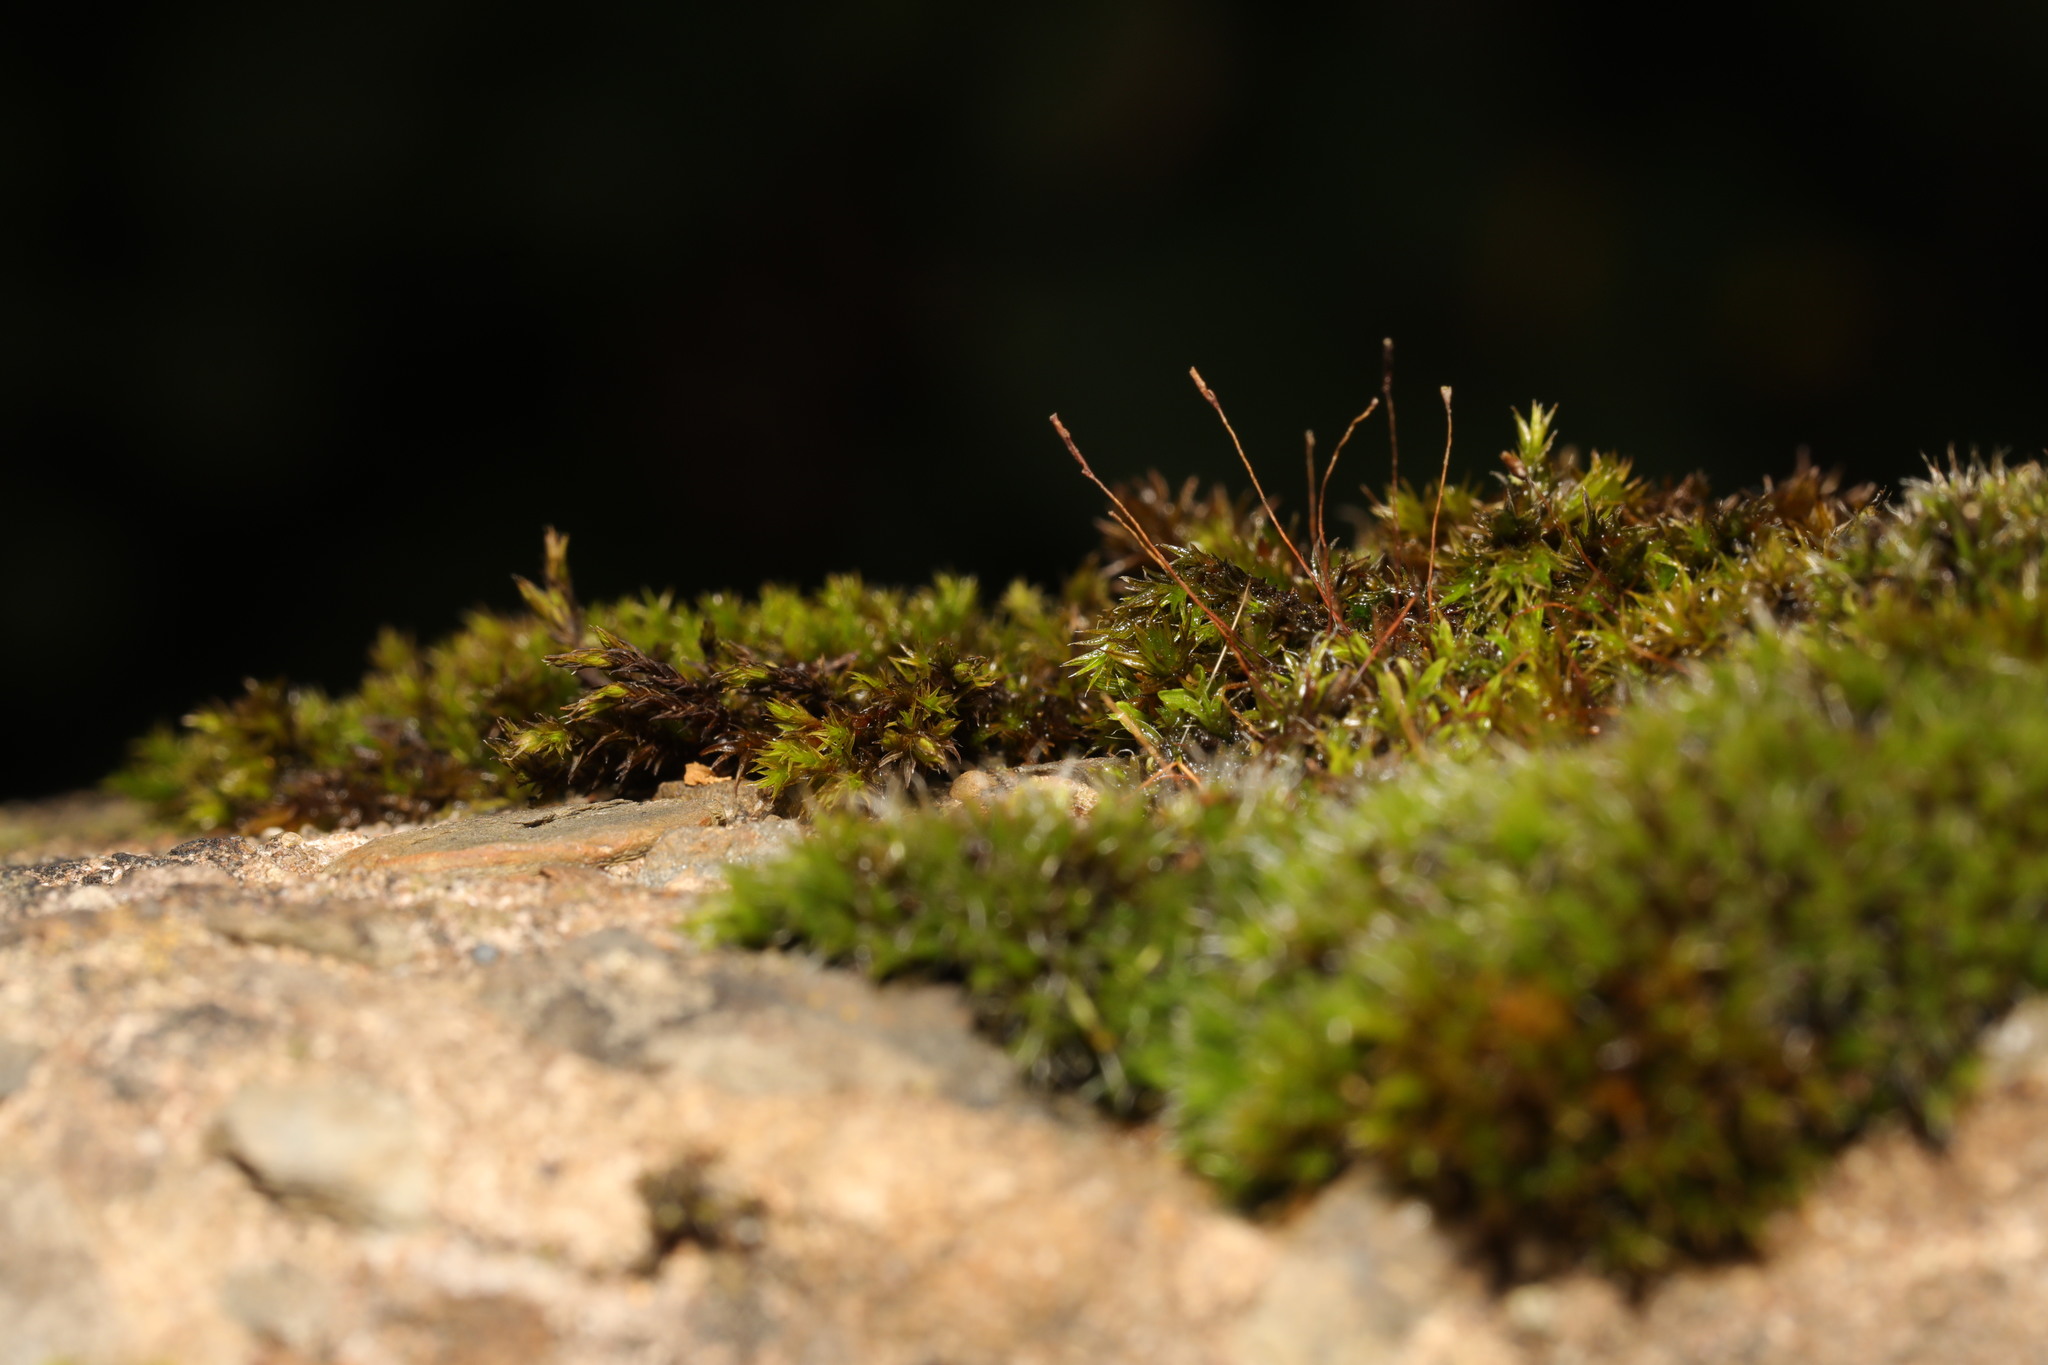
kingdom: Plantae
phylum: Bryophyta
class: Bryopsida
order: Pottiales
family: Pottiaceae
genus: Tortula
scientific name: Tortula muralis
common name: Wall screw-moss
